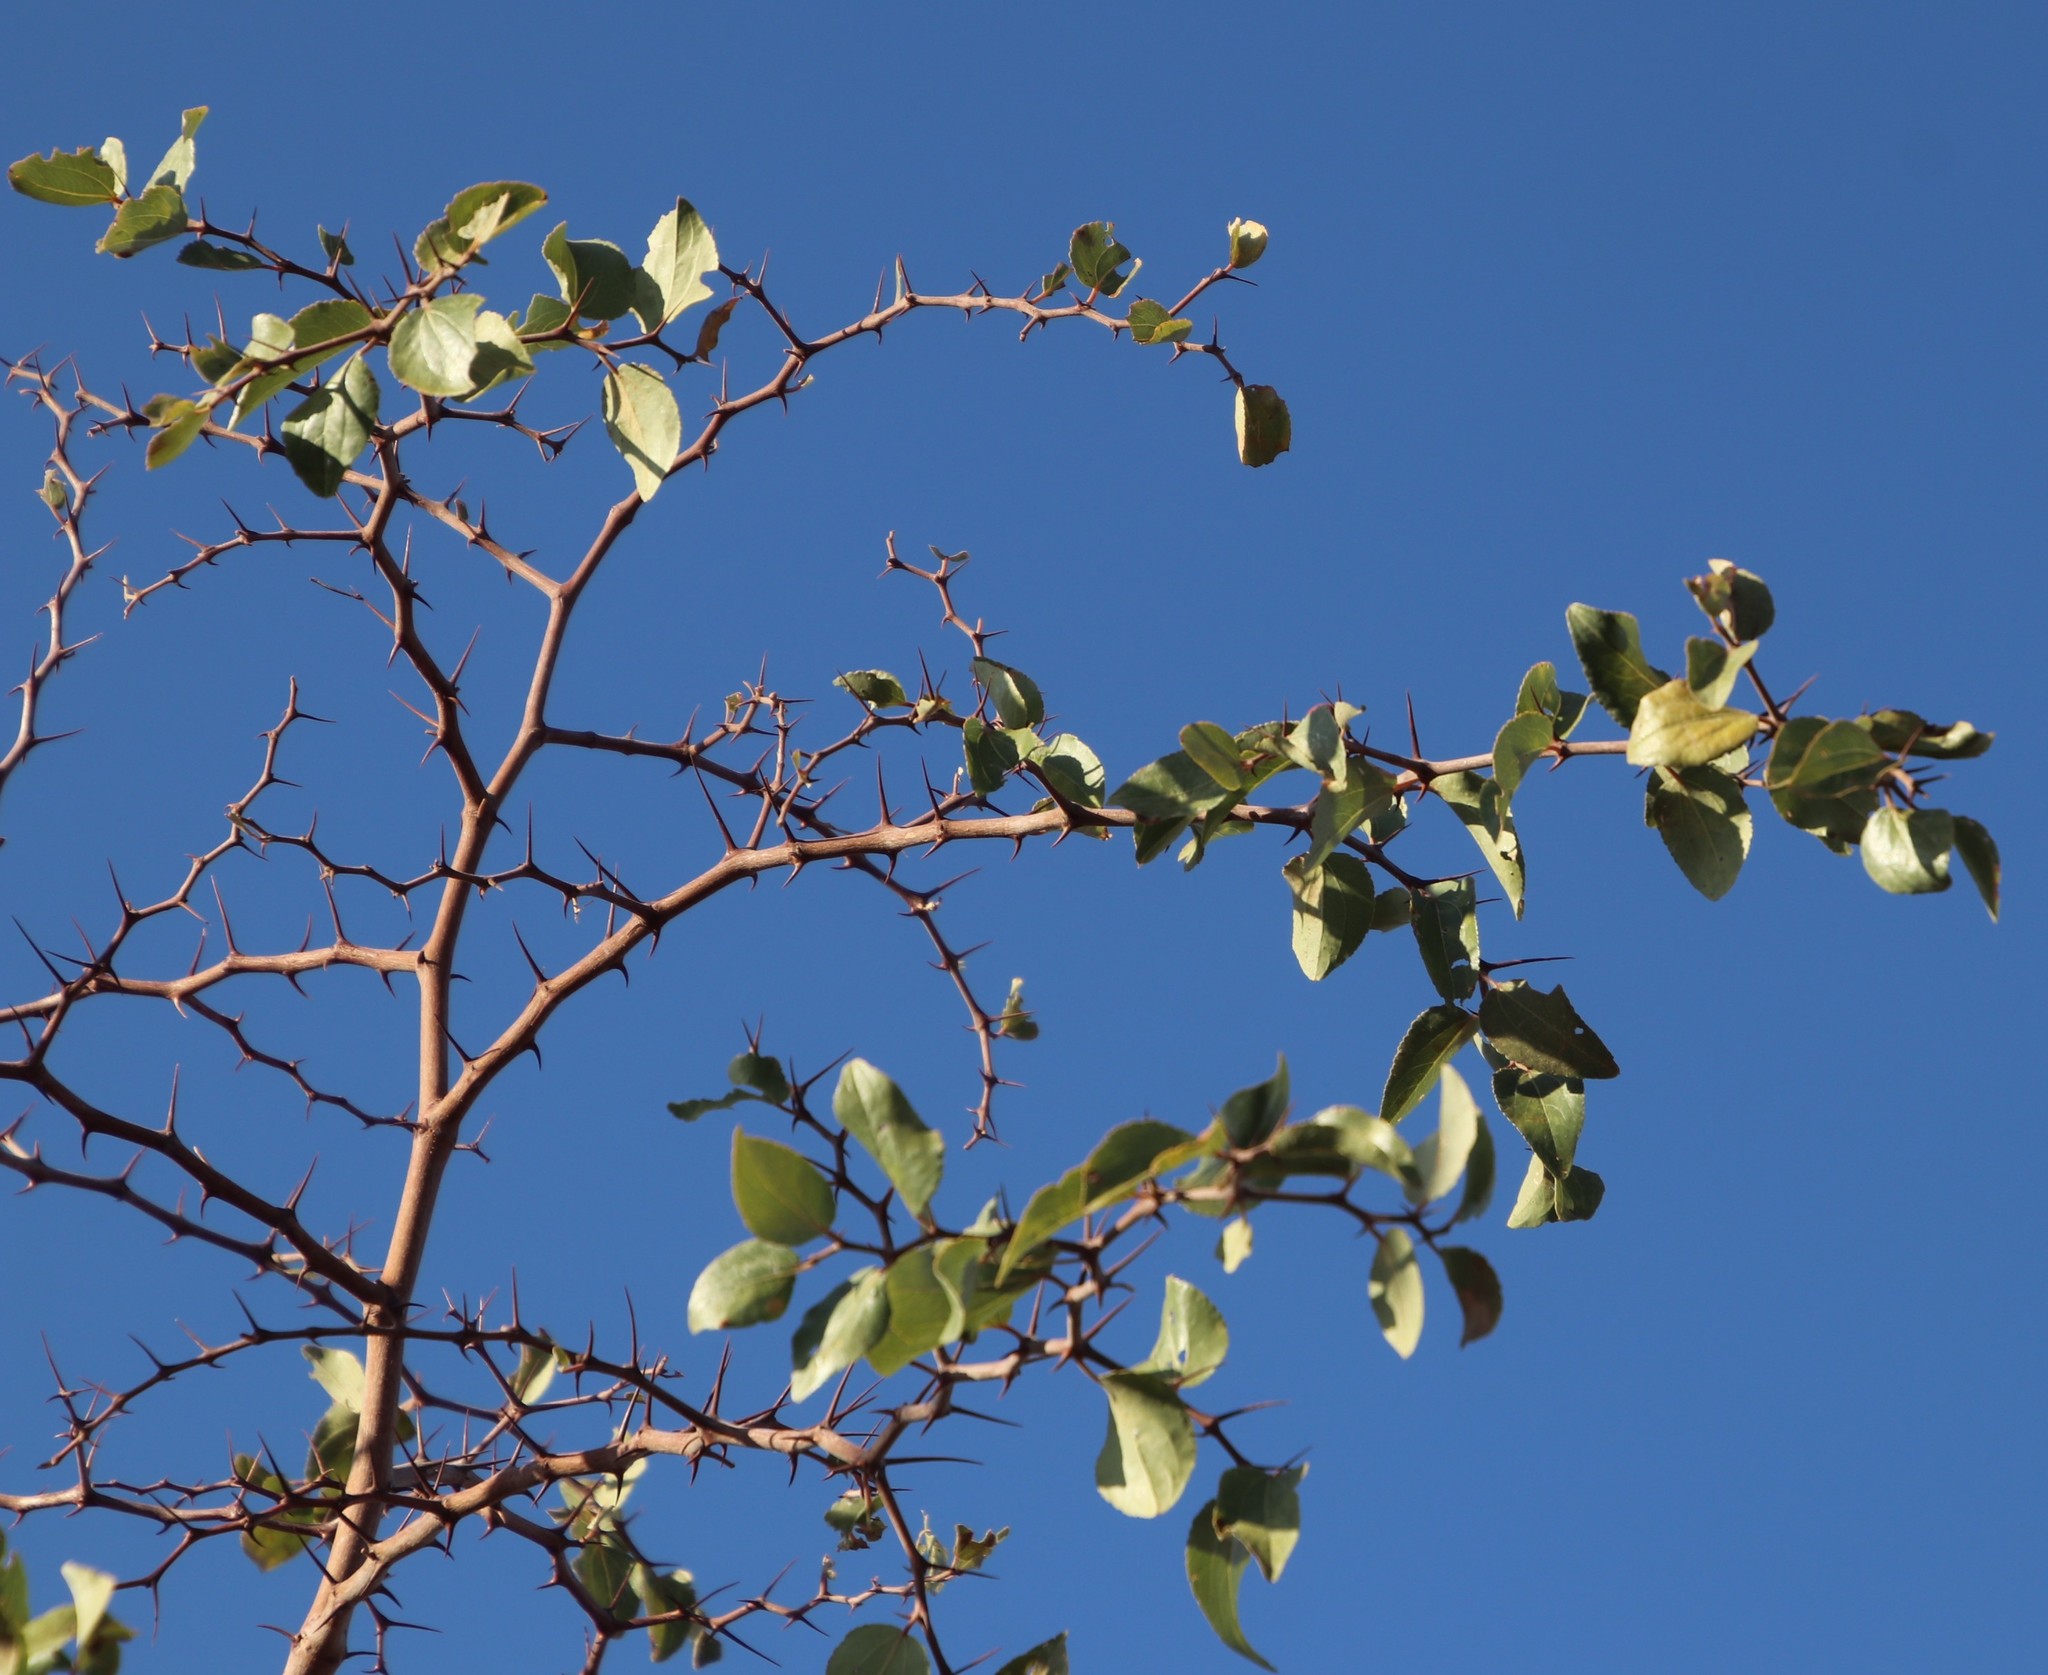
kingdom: Plantae
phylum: Tracheophyta
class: Magnoliopsida
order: Rosales
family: Rhamnaceae
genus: Ziziphus
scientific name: Ziziphus mucronata
